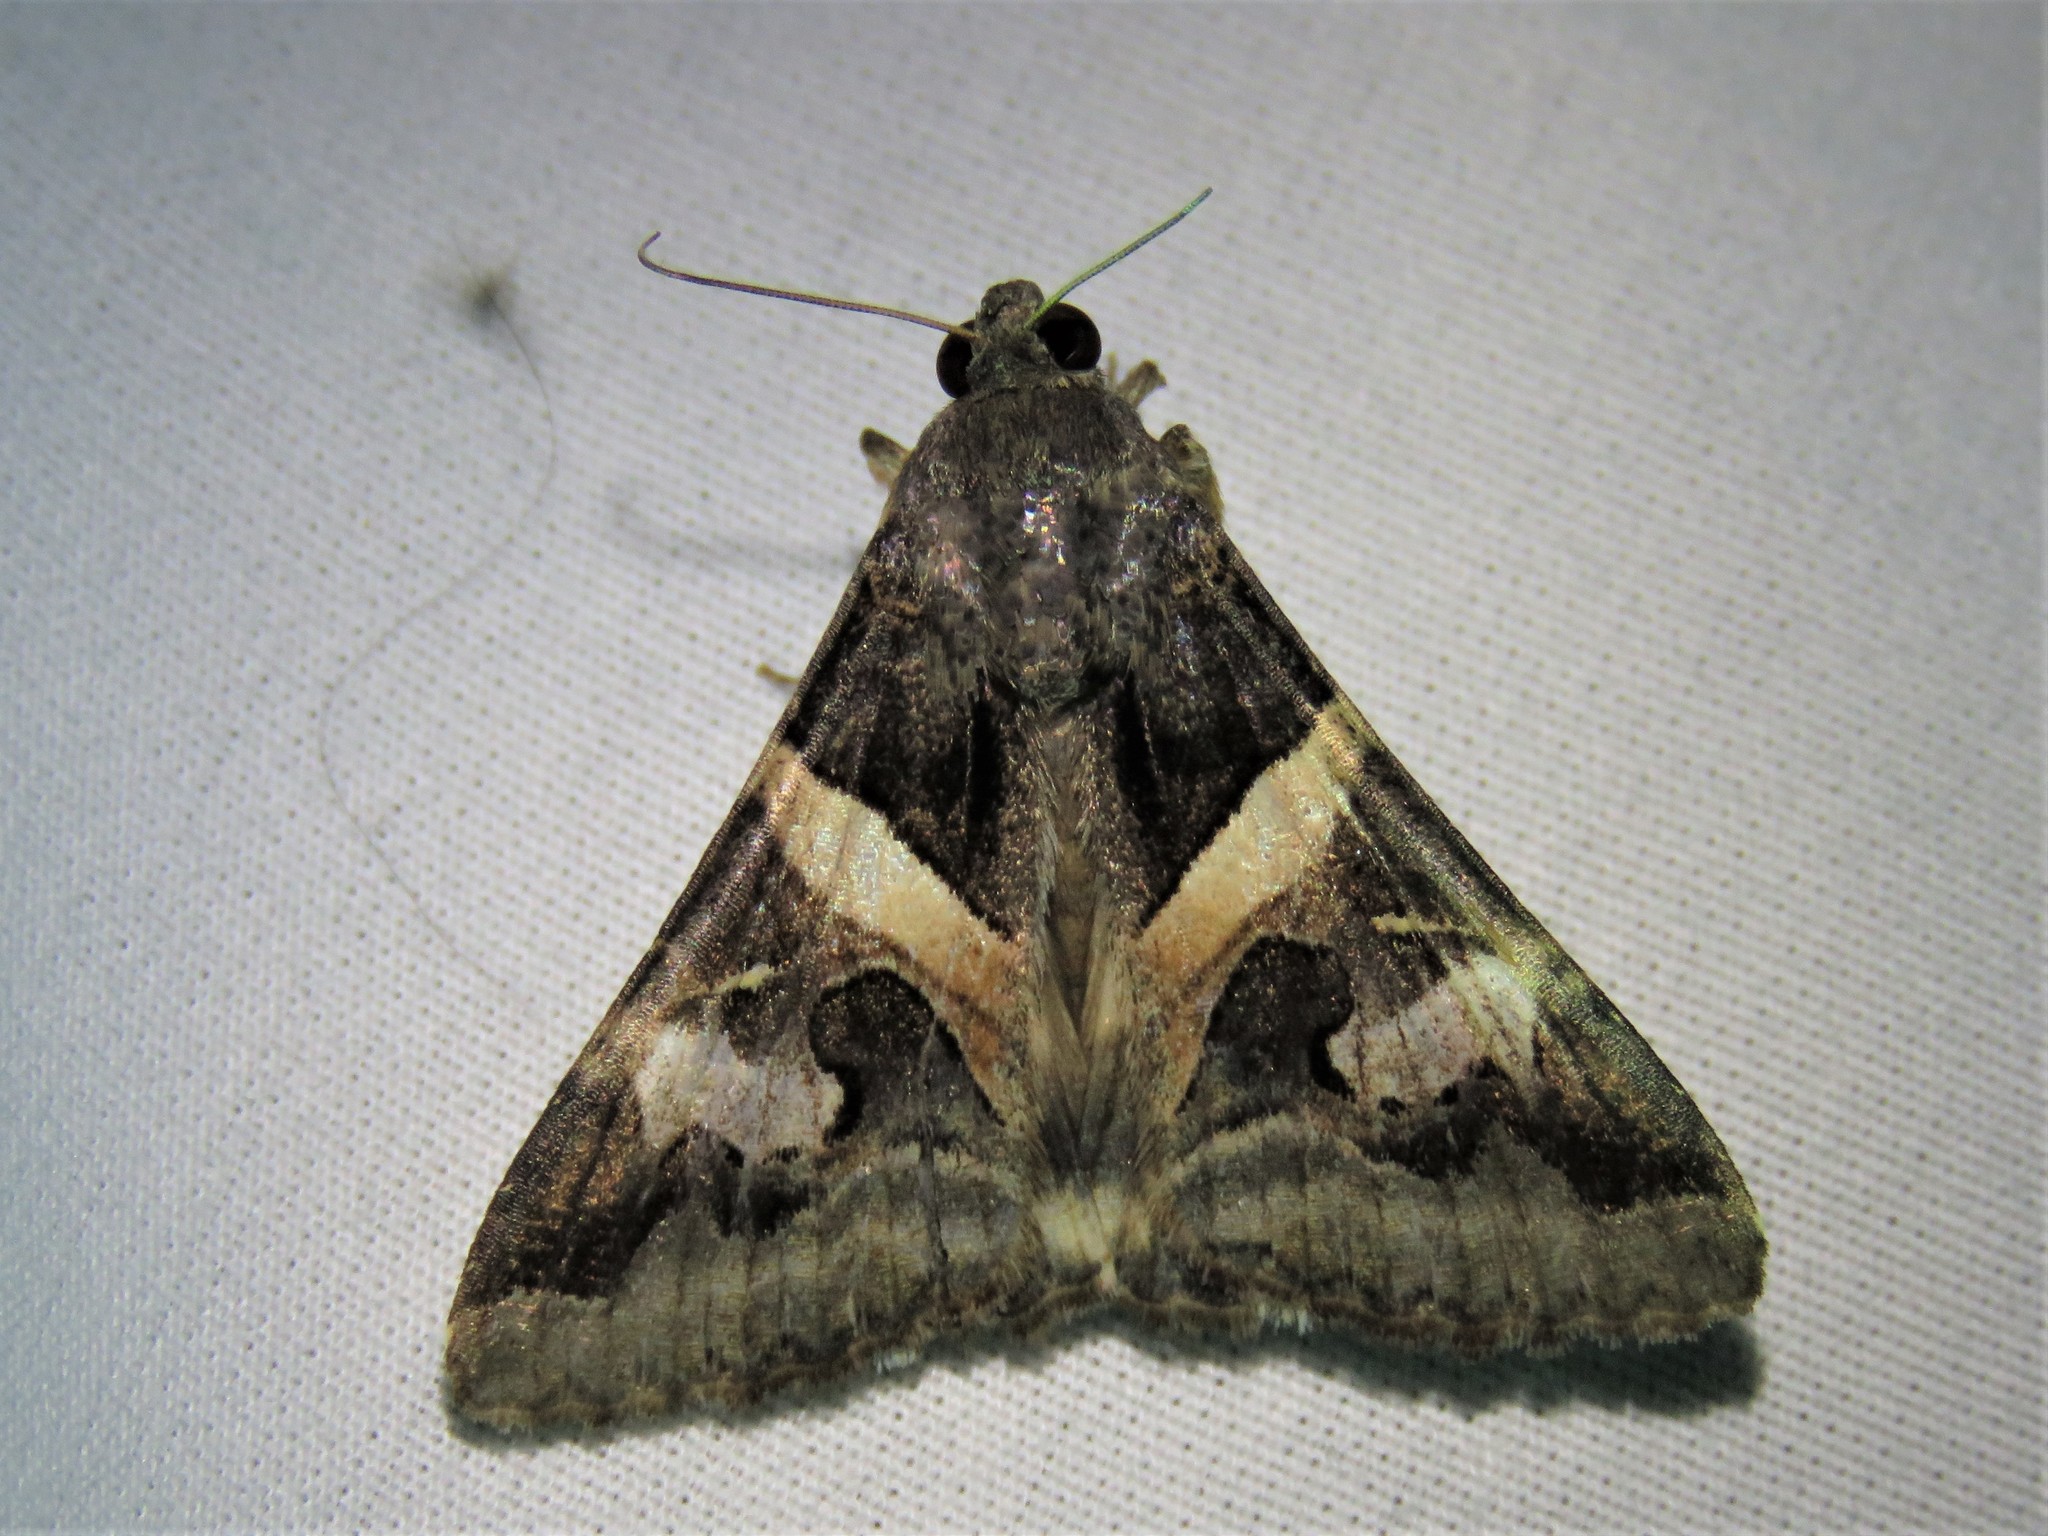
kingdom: Animalia
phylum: Arthropoda
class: Insecta
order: Lepidoptera
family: Erebidae
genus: Melipotis
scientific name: Melipotis indomita
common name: Moth
